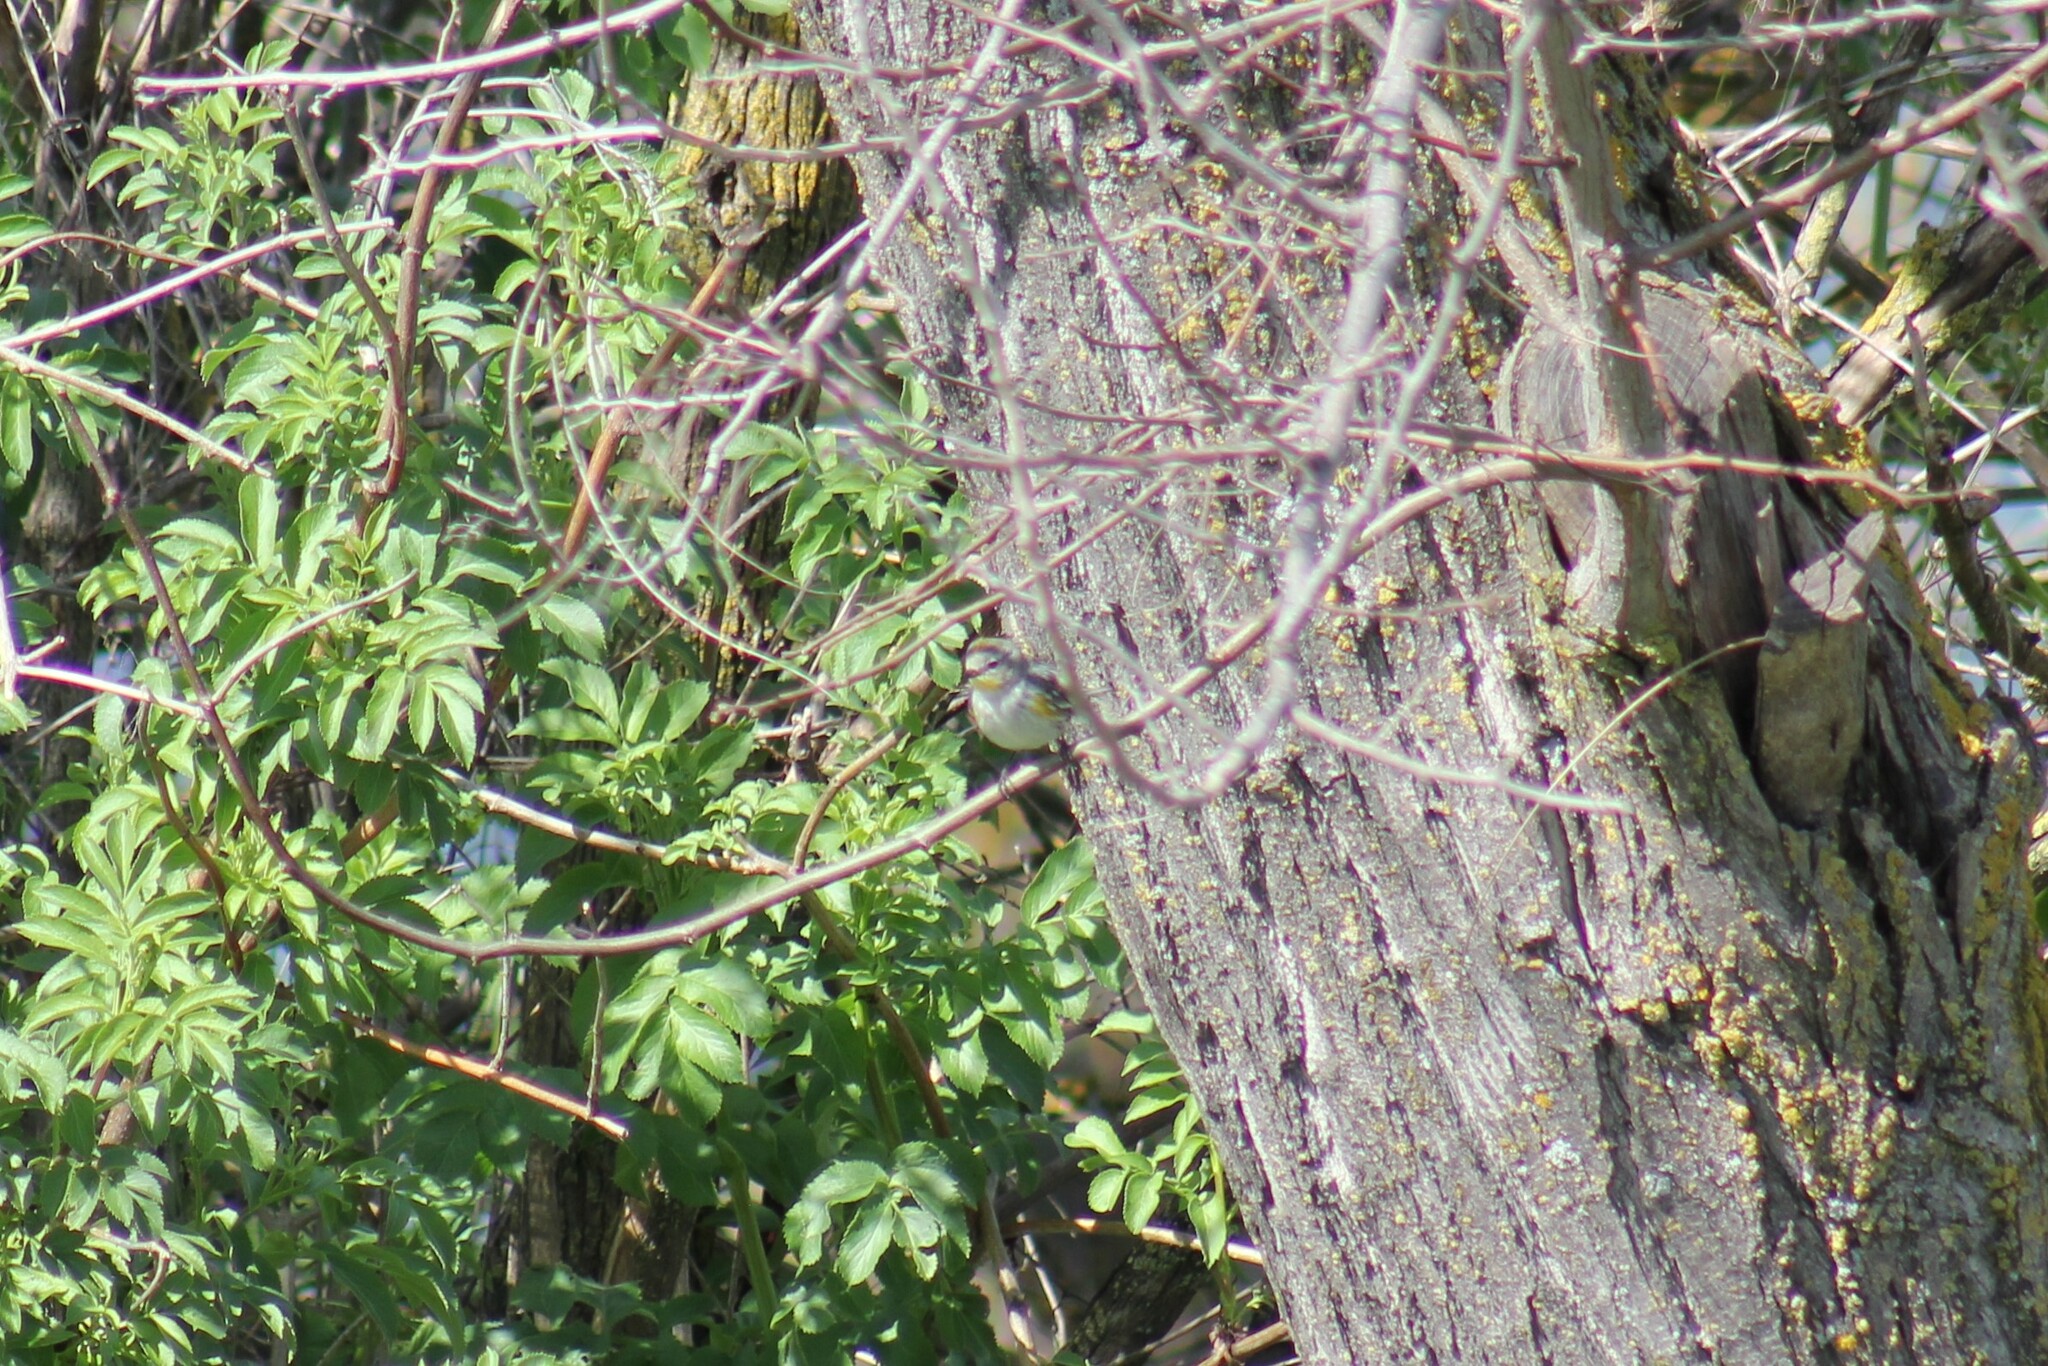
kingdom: Animalia
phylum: Chordata
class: Aves
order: Passeriformes
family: Parulidae
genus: Setophaga
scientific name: Setophaga coronata
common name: Myrtle warbler
